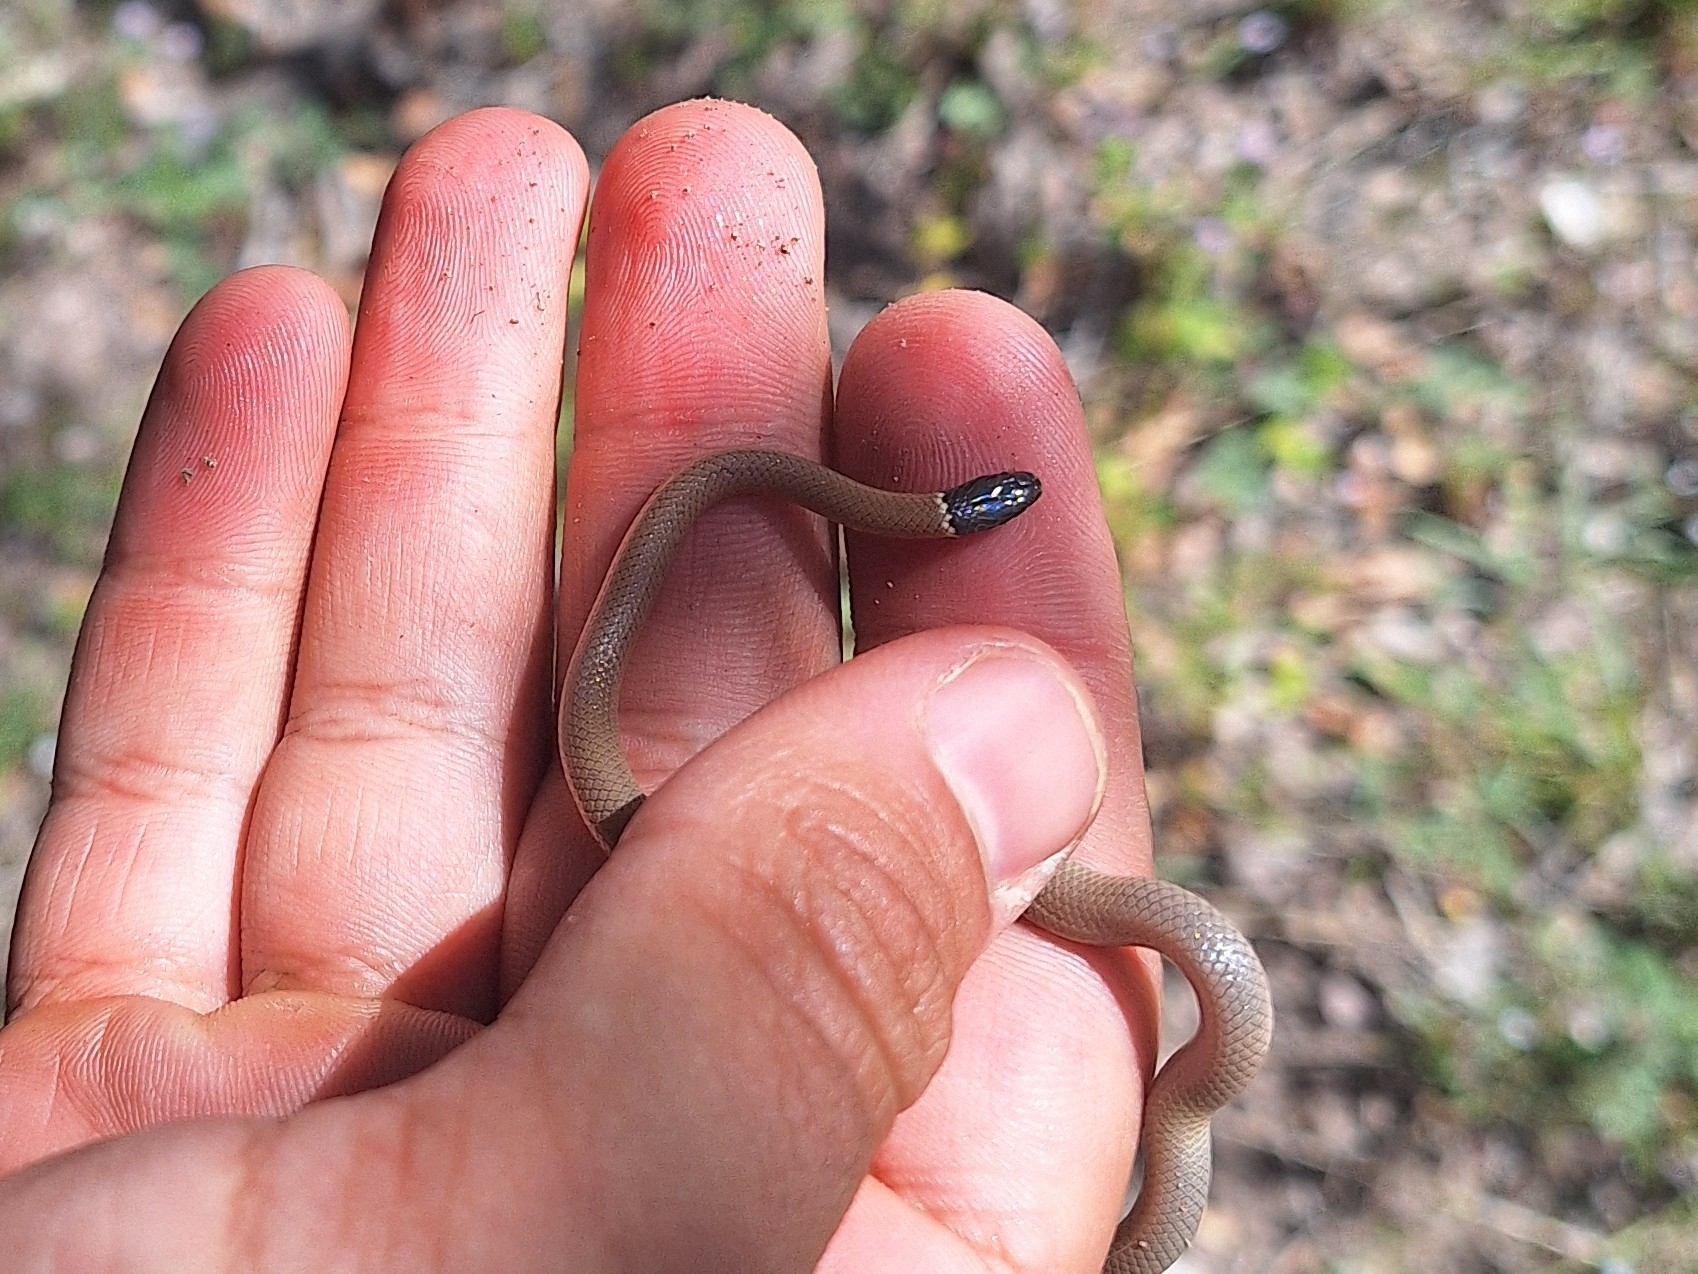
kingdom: Animalia
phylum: Chordata
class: Squamata
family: Colubridae
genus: Tantilla
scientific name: Tantilla yaquia
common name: Yaqui black-headed snake
